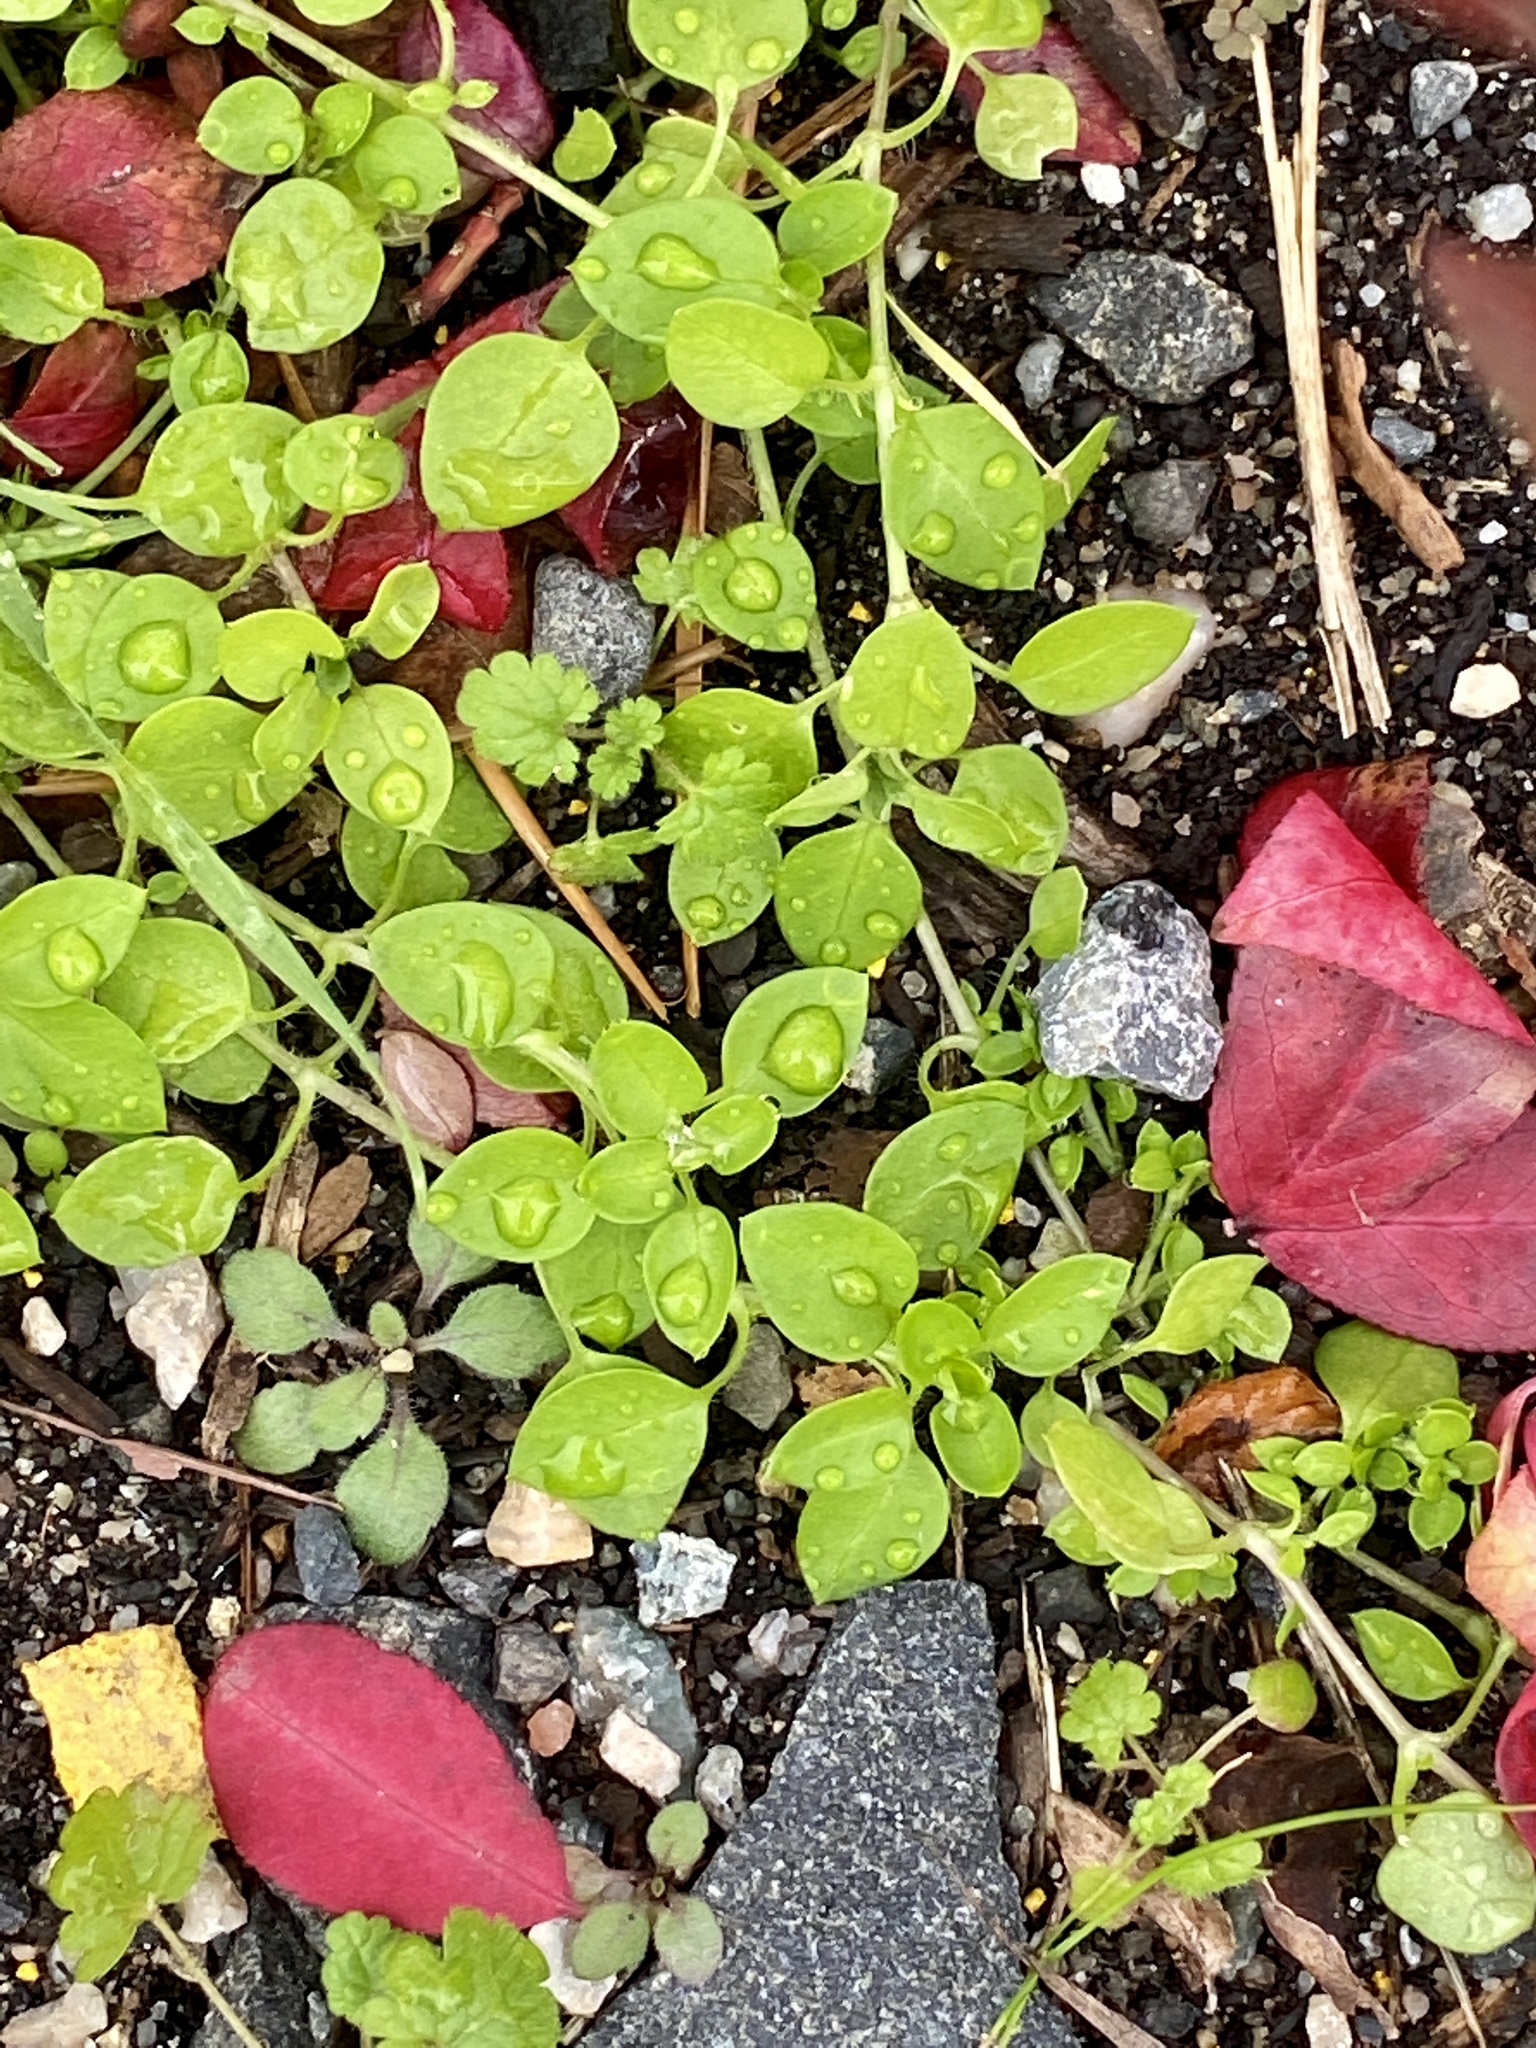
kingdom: Plantae
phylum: Tracheophyta
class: Magnoliopsida
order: Caryophyllales
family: Caryophyllaceae
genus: Stellaria
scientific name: Stellaria media
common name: Common chickweed
